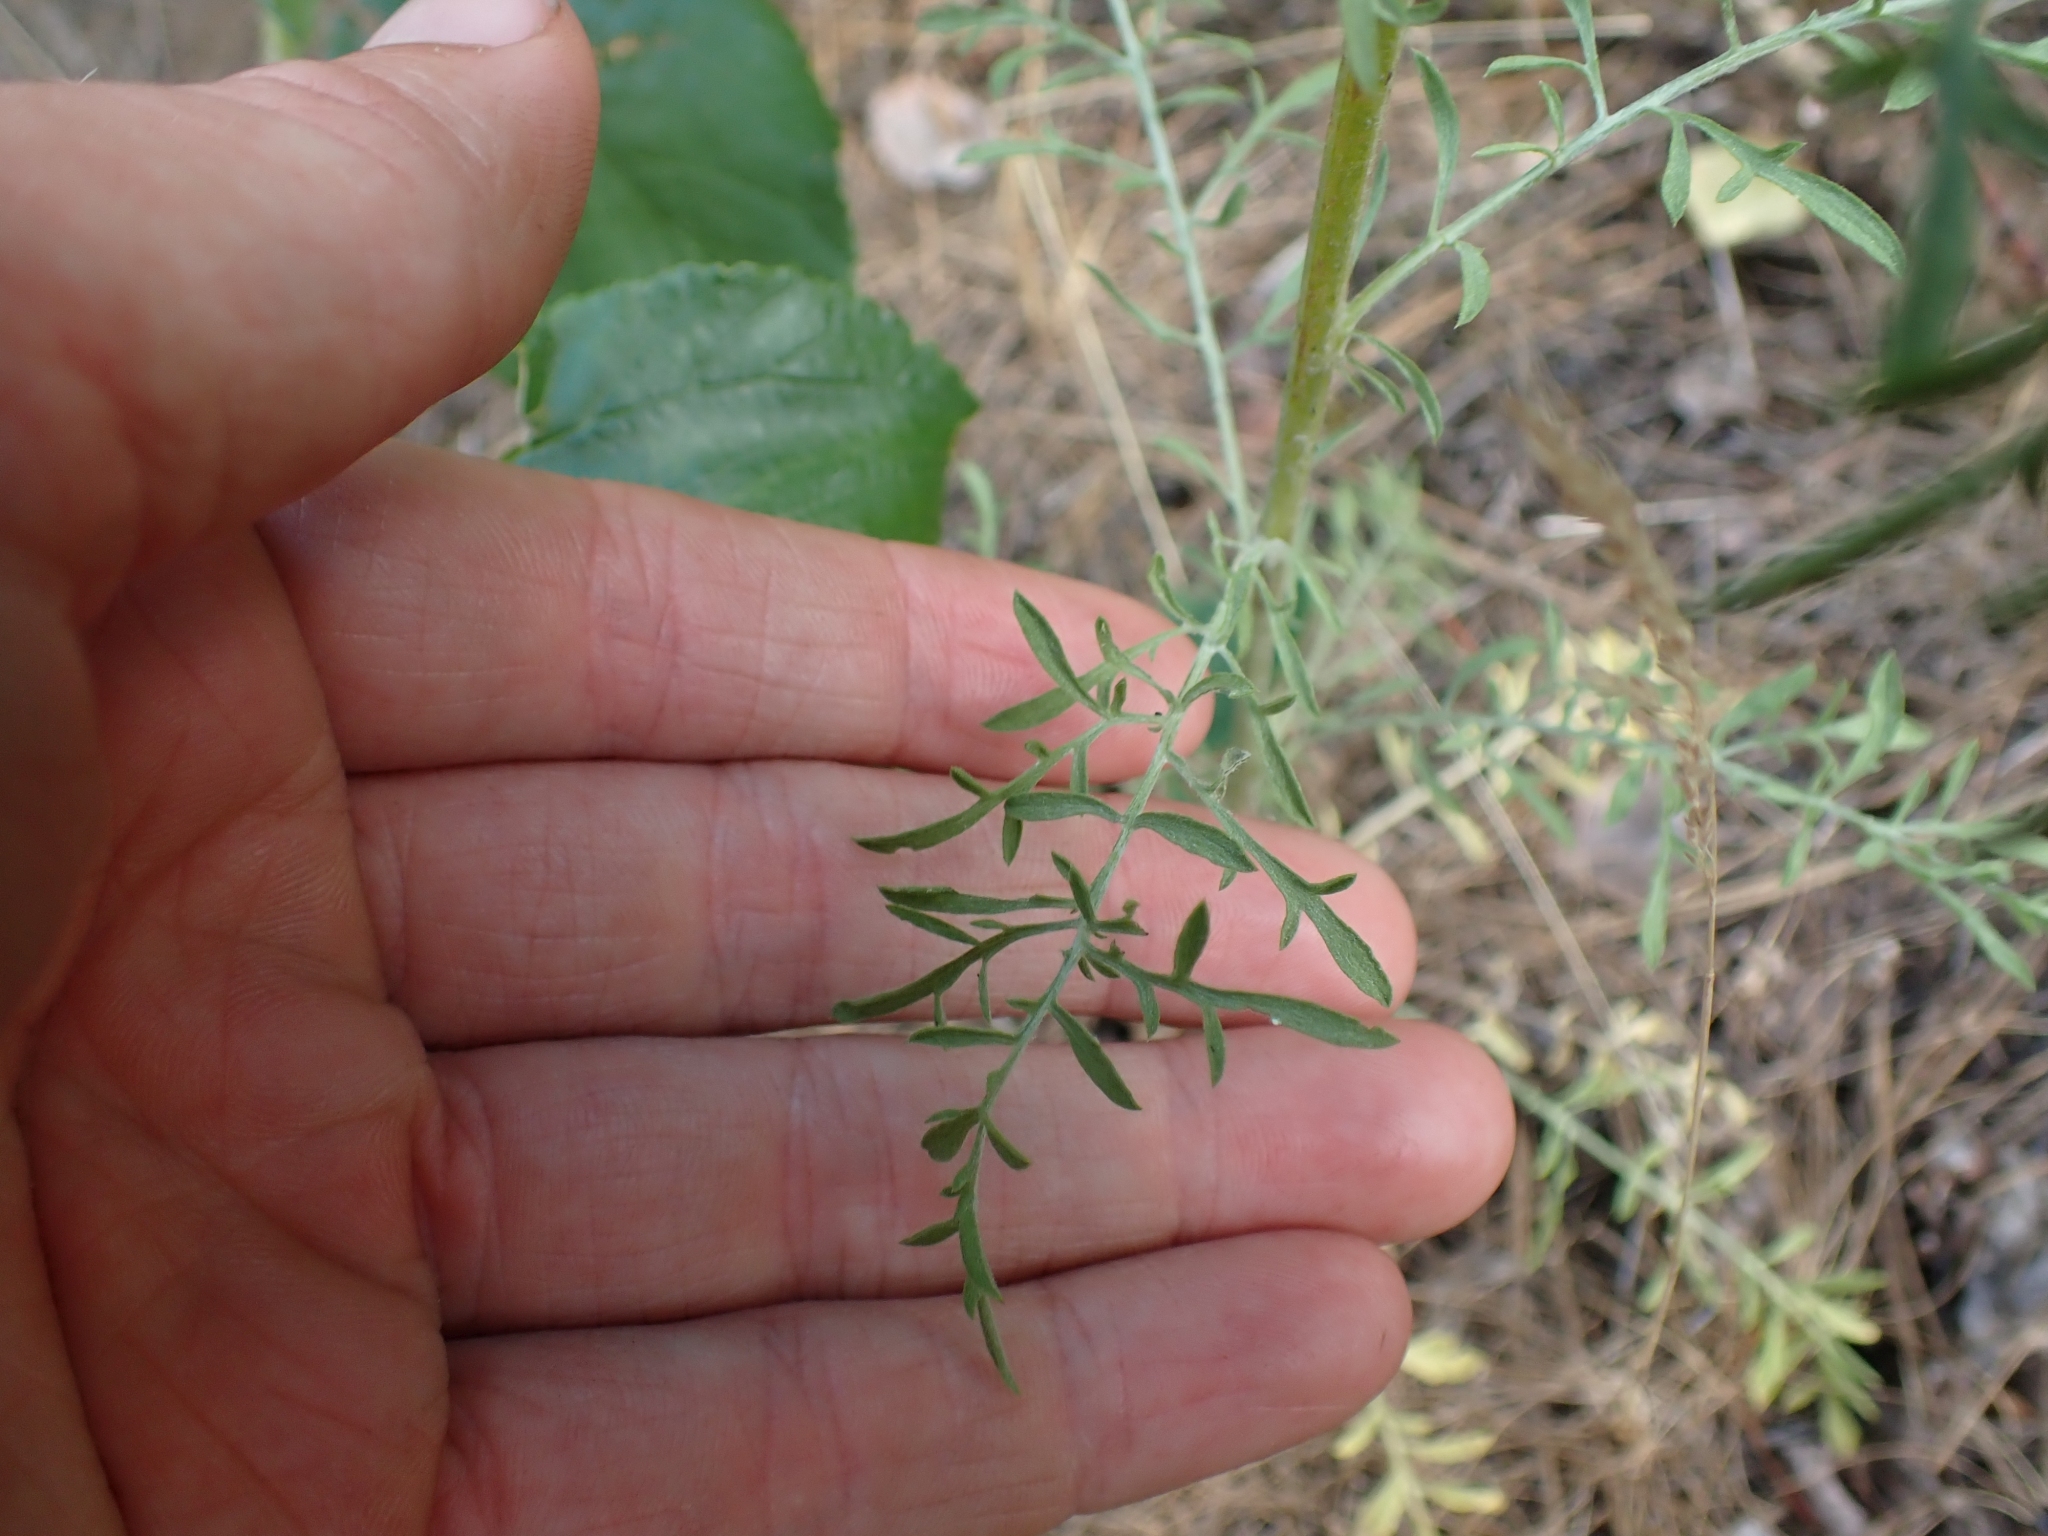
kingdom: Plantae
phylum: Tracheophyta
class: Magnoliopsida
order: Asterales
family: Asteraceae
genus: Centaurea
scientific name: Centaurea diffusa
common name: Diffuse knapweed
